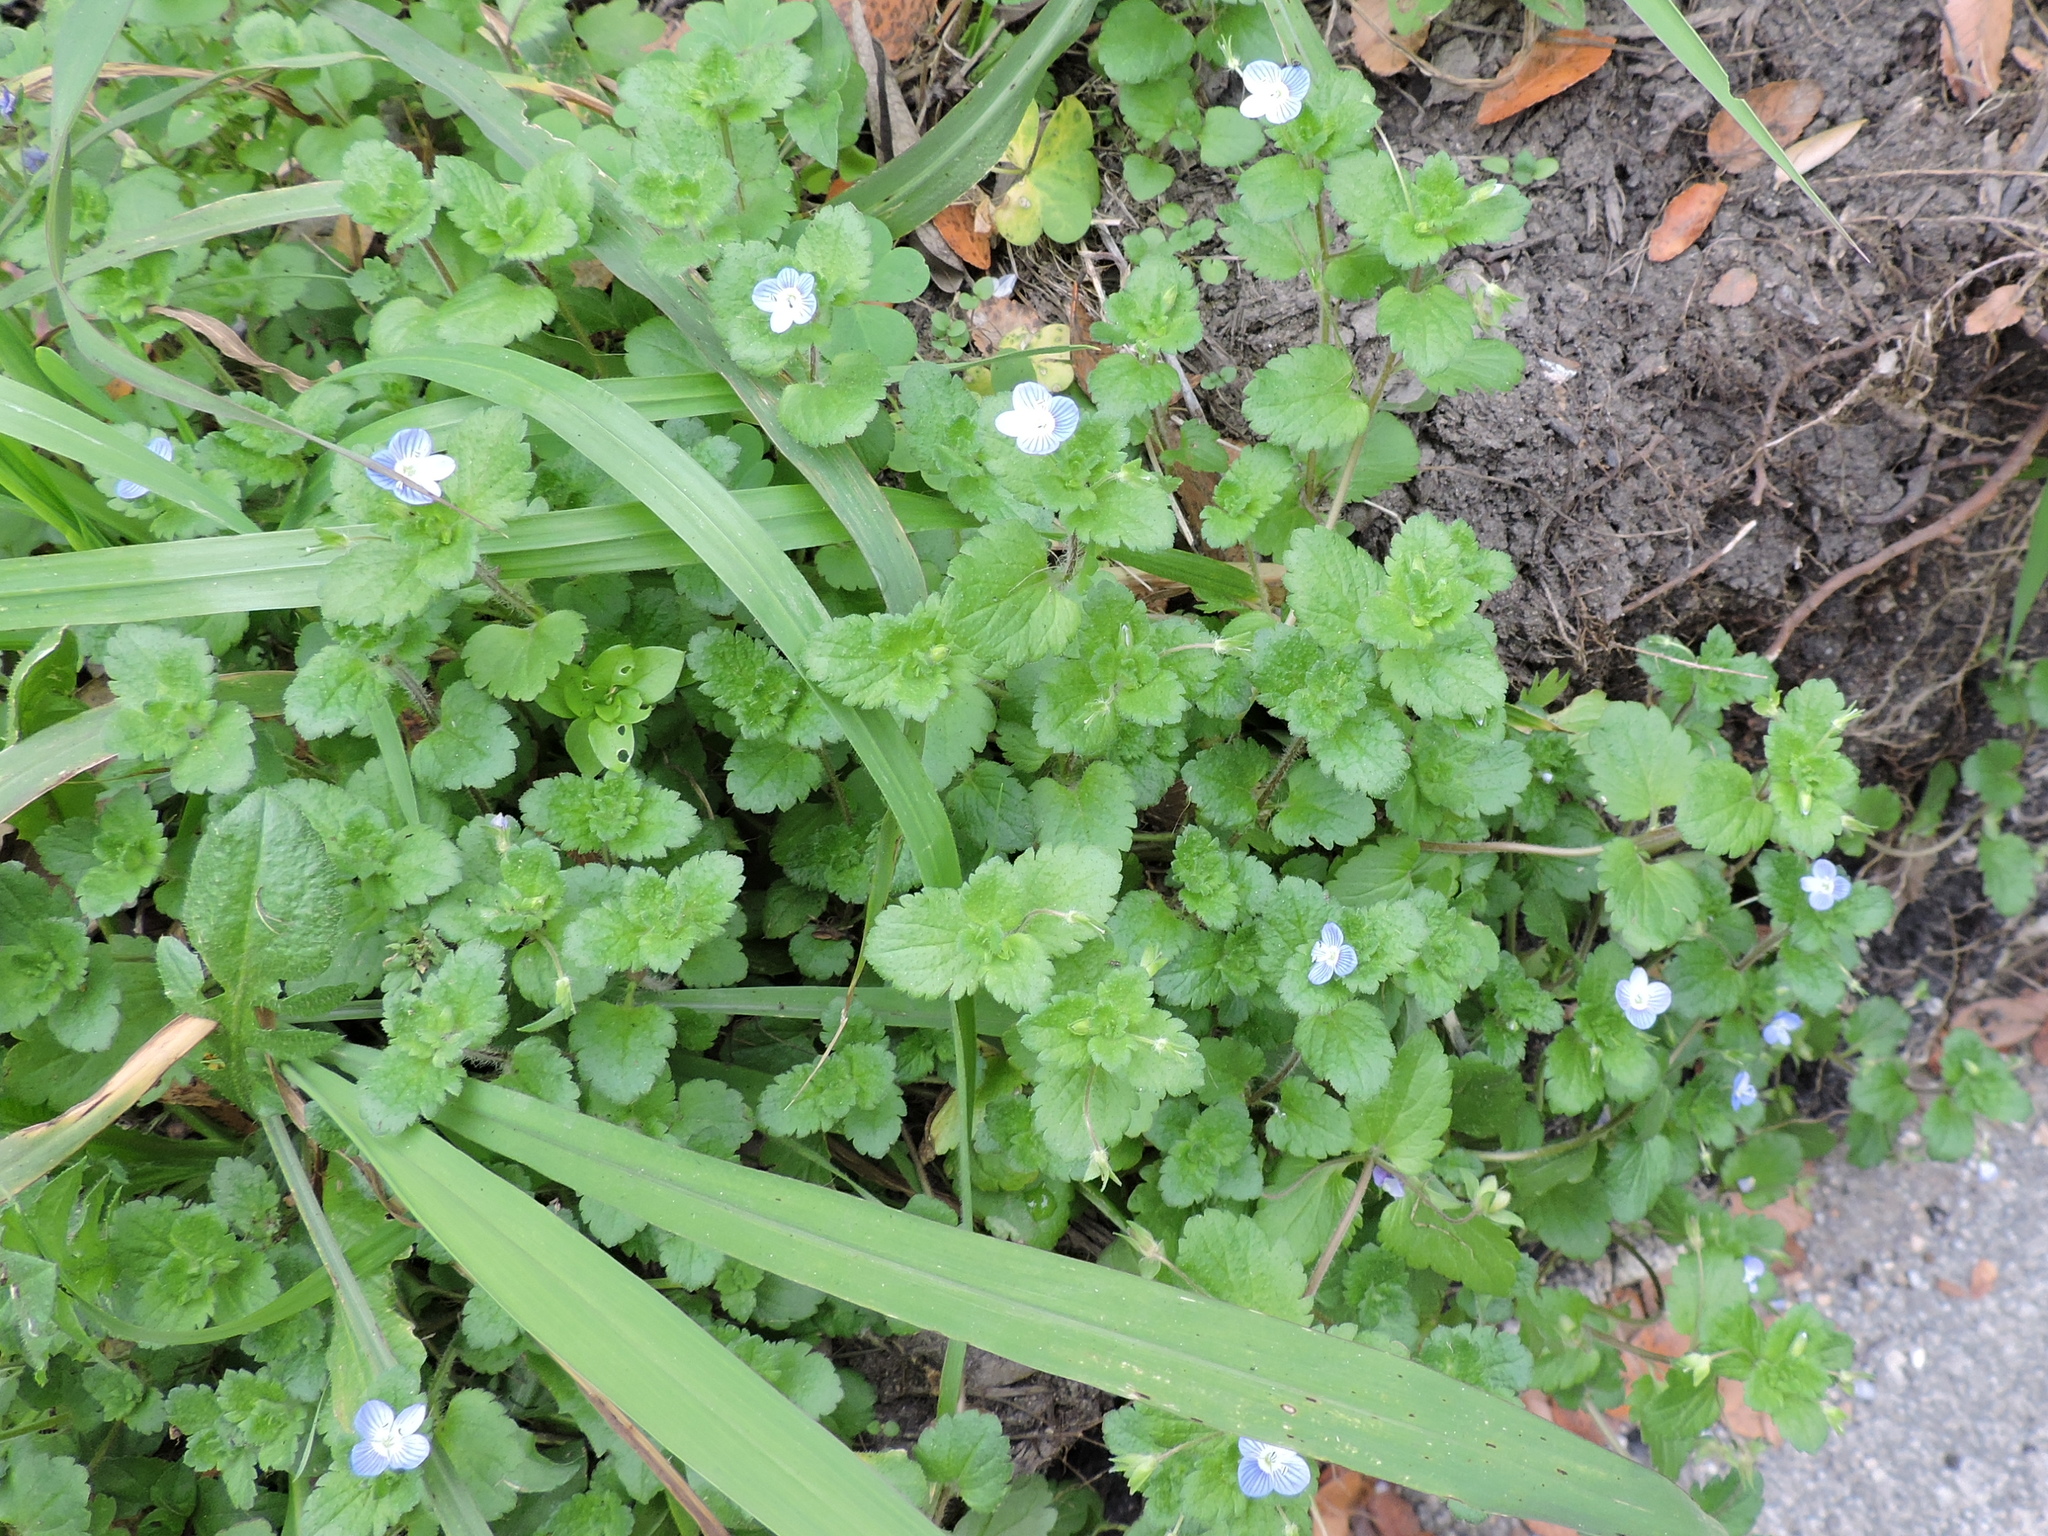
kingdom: Plantae
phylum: Tracheophyta
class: Magnoliopsida
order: Lamiales
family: Plantaginaceae
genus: Veronica
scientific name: Veronica persica
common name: Common field-speedwell
